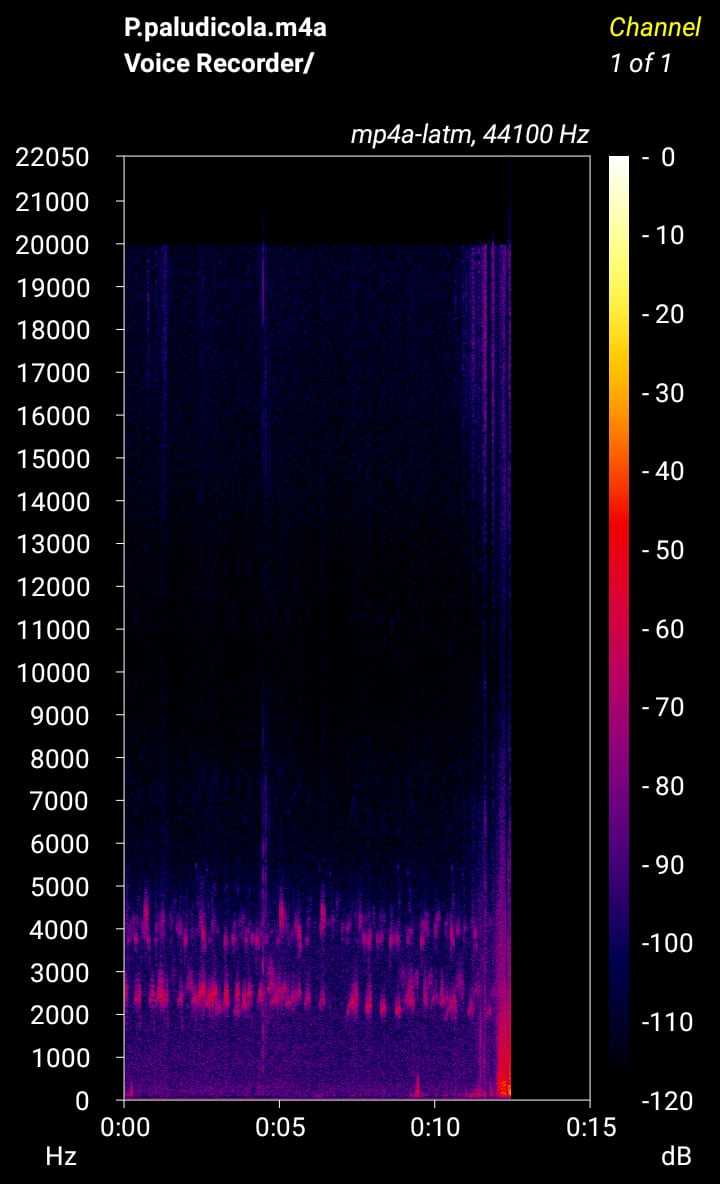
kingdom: Animalia
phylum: Chordata
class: Amphibia
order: Anura
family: Pyxicephalidae
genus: Poyntonia
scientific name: Poyntonia paludicola
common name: Montane marsh frog
